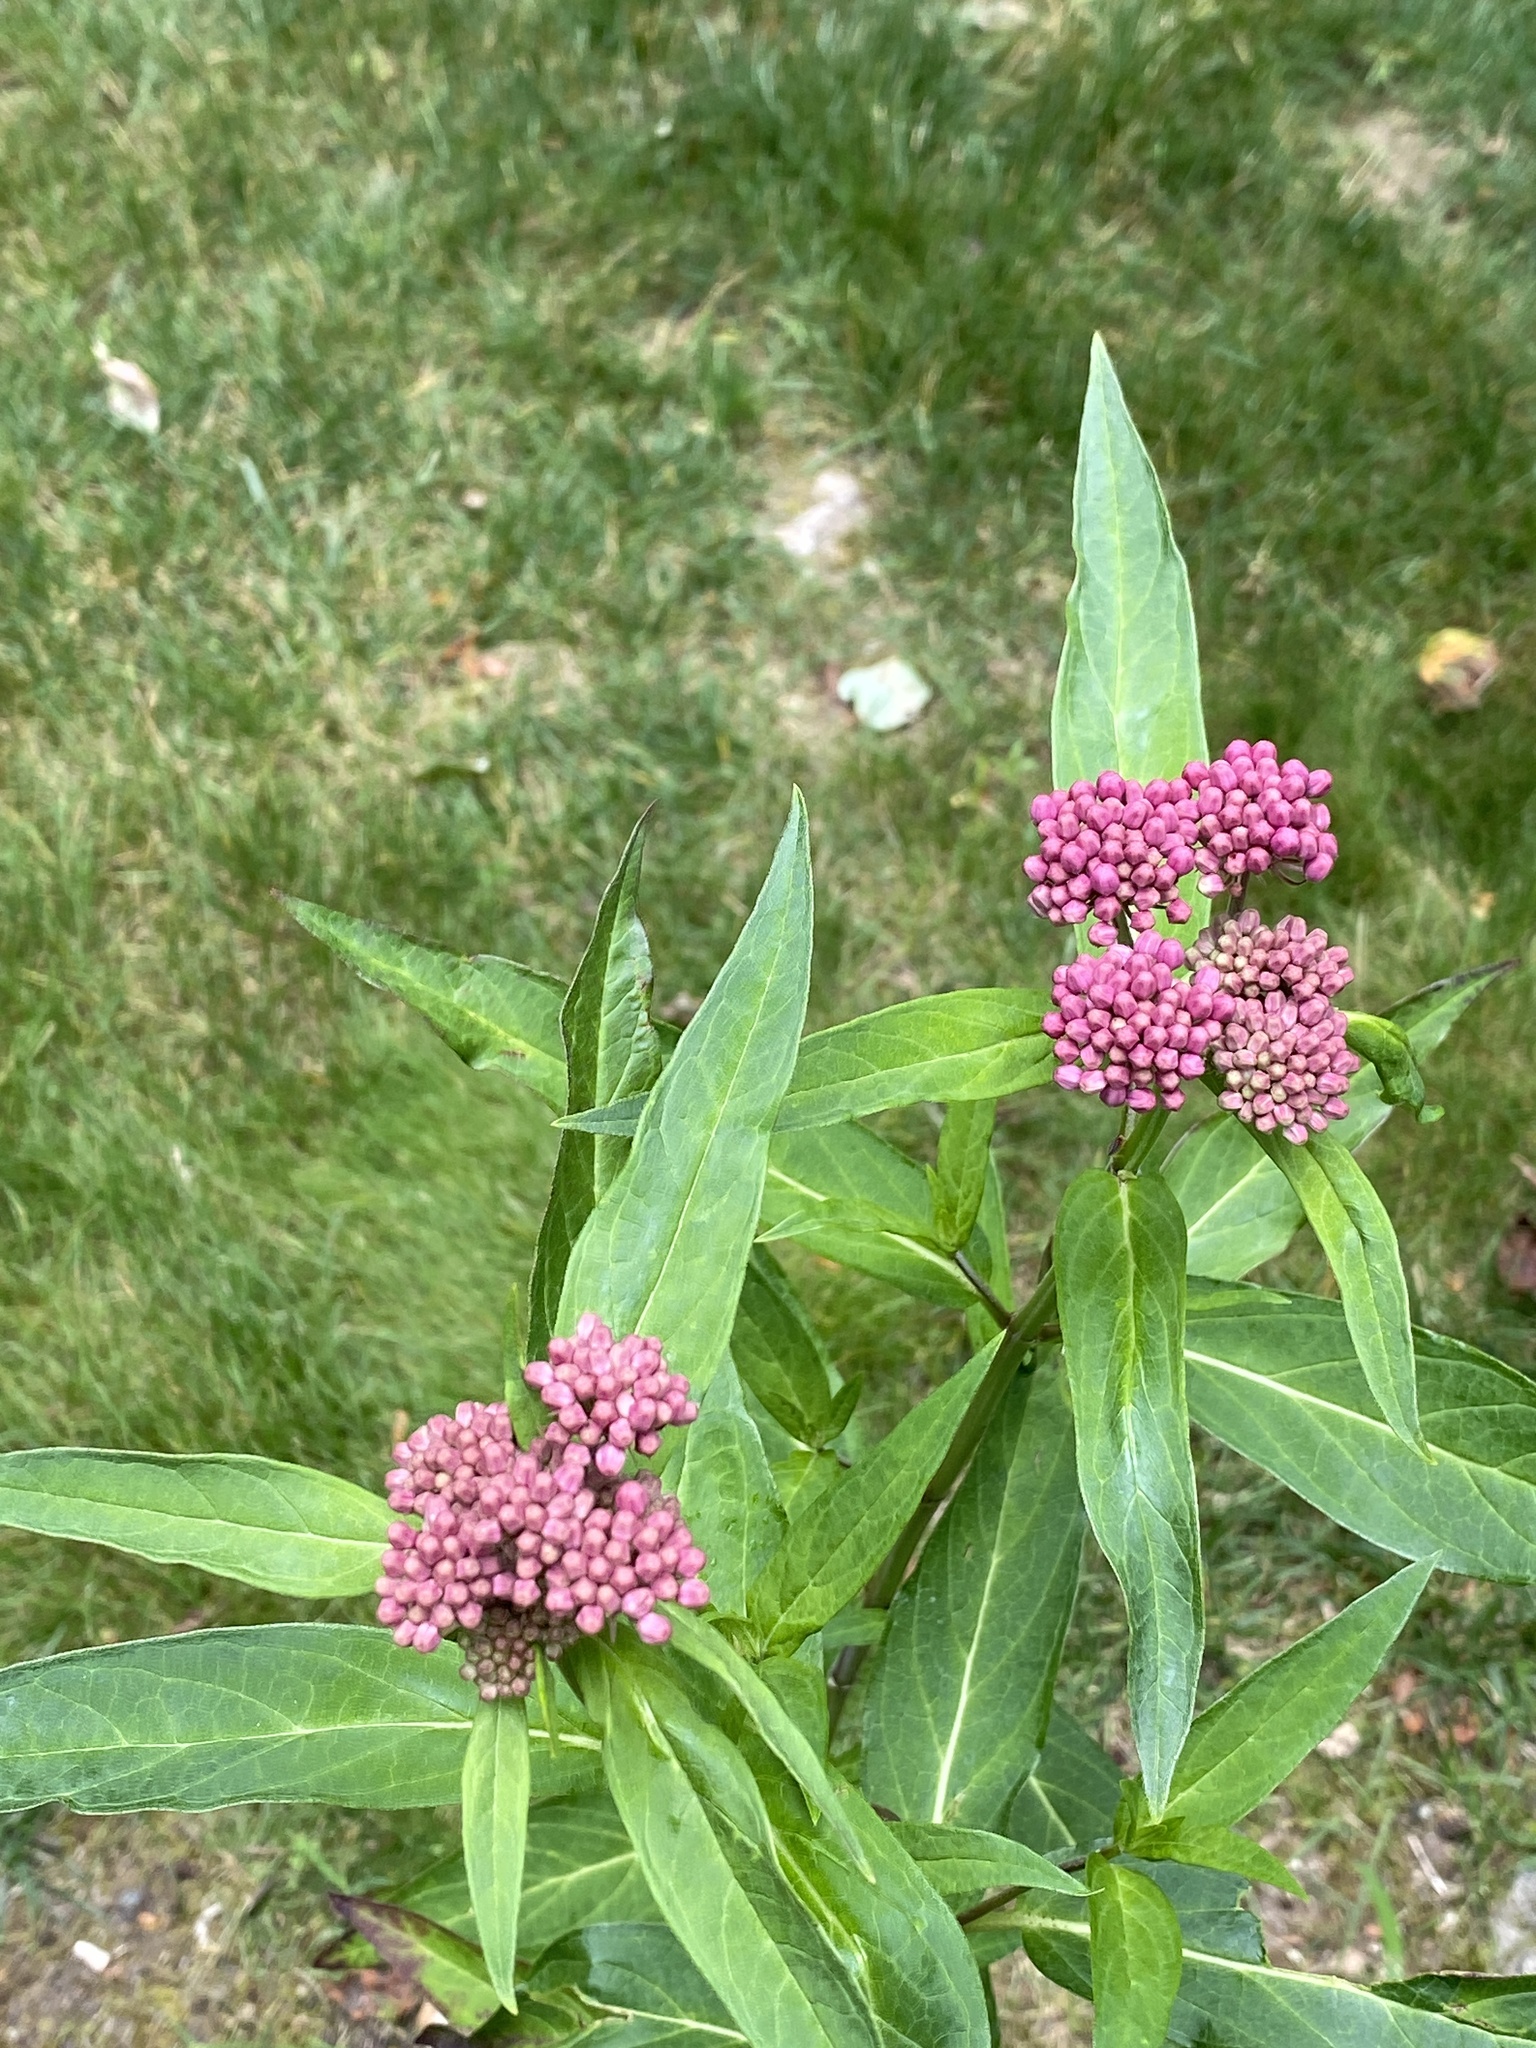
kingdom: Plantae
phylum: Tracheophyta
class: Magnoliopsida
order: Gentianales
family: Apocynaceae
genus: Asclepias
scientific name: Asclepias incarnata
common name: Swamp milkweed
